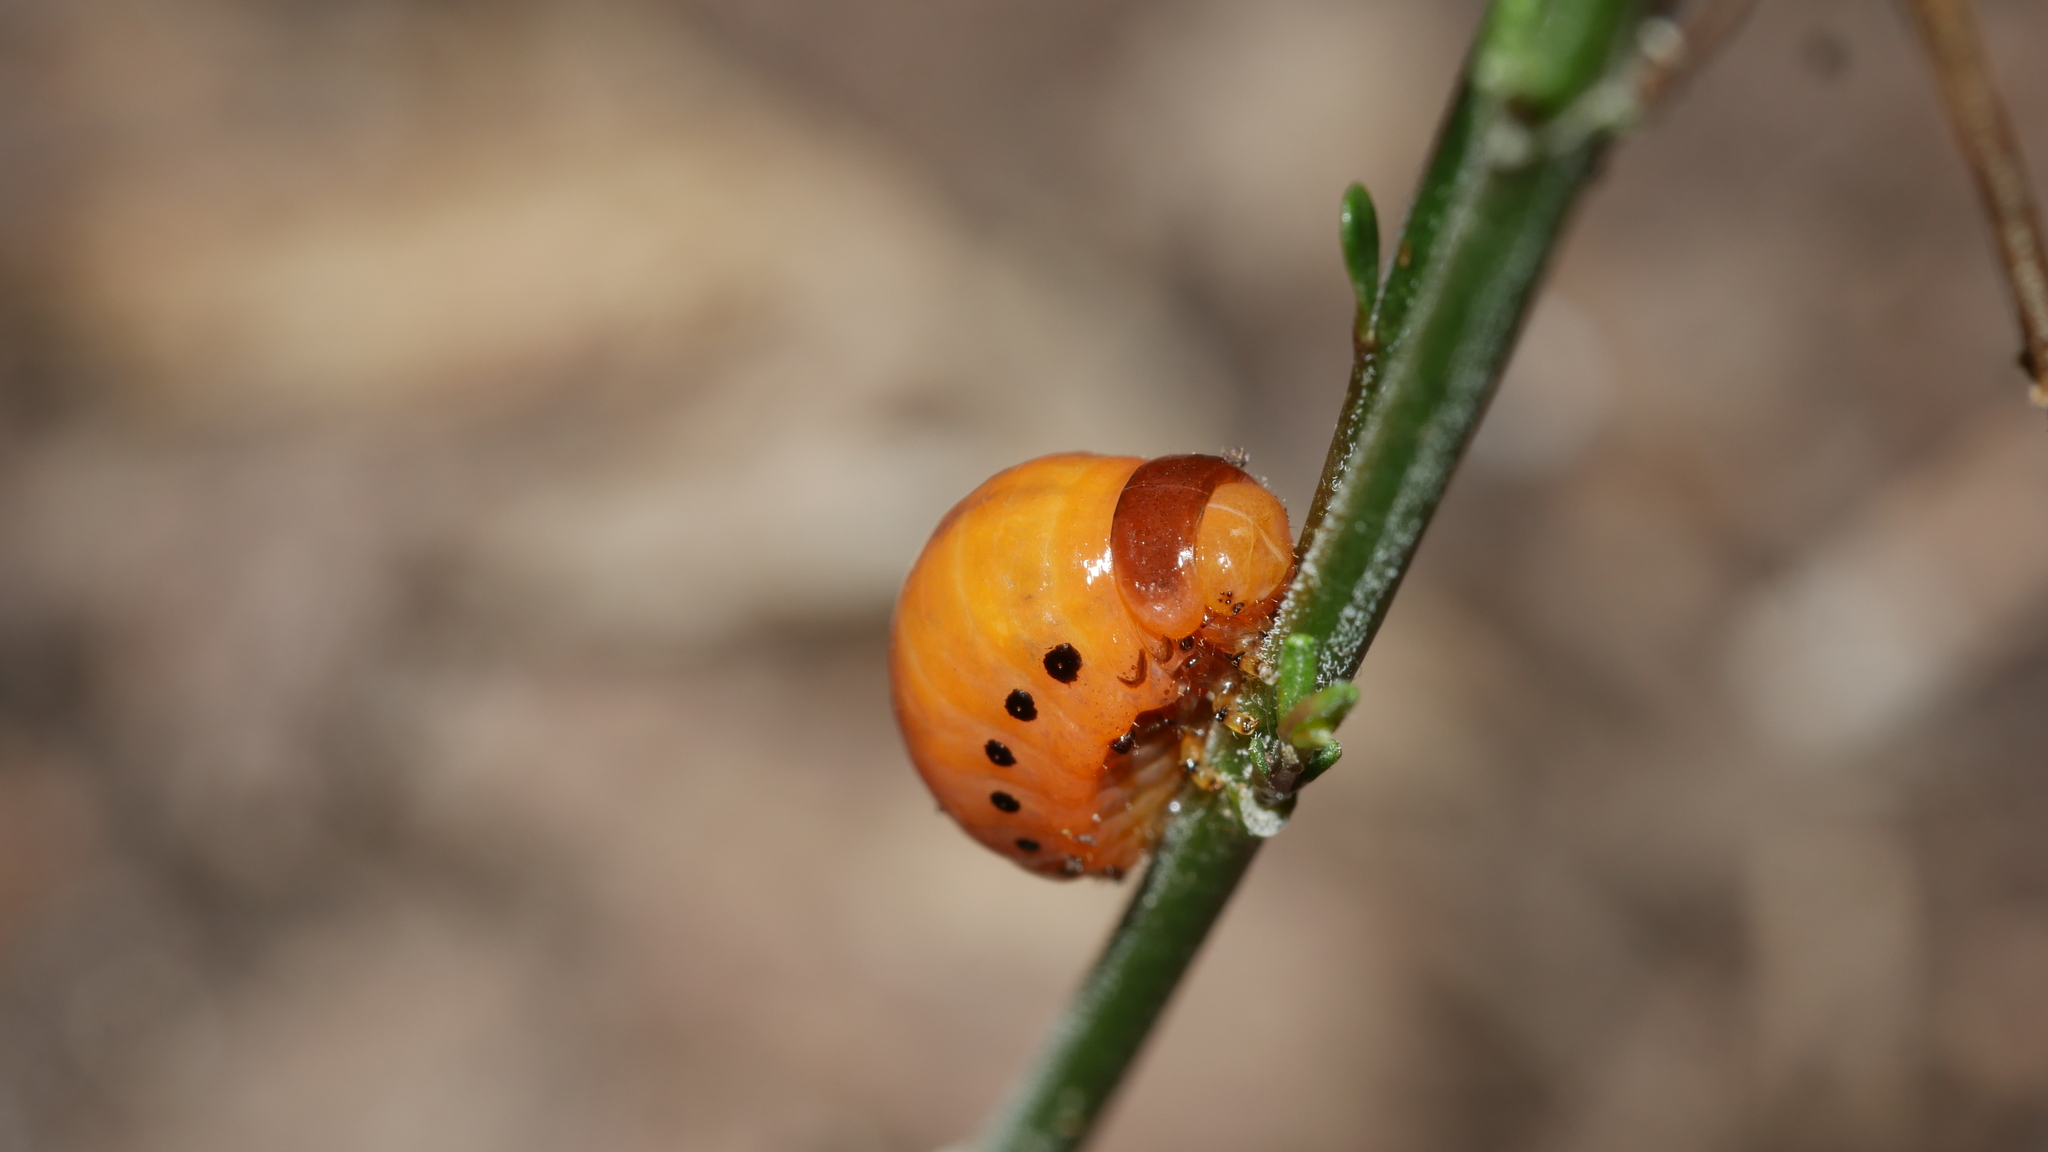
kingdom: Animalia
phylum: Arthropoda
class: Insecta
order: Coleoptera
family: Chrysomelidae
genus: Labidomera
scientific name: Labidomera clivicollis
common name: Swamp milkweed leaf beetle
